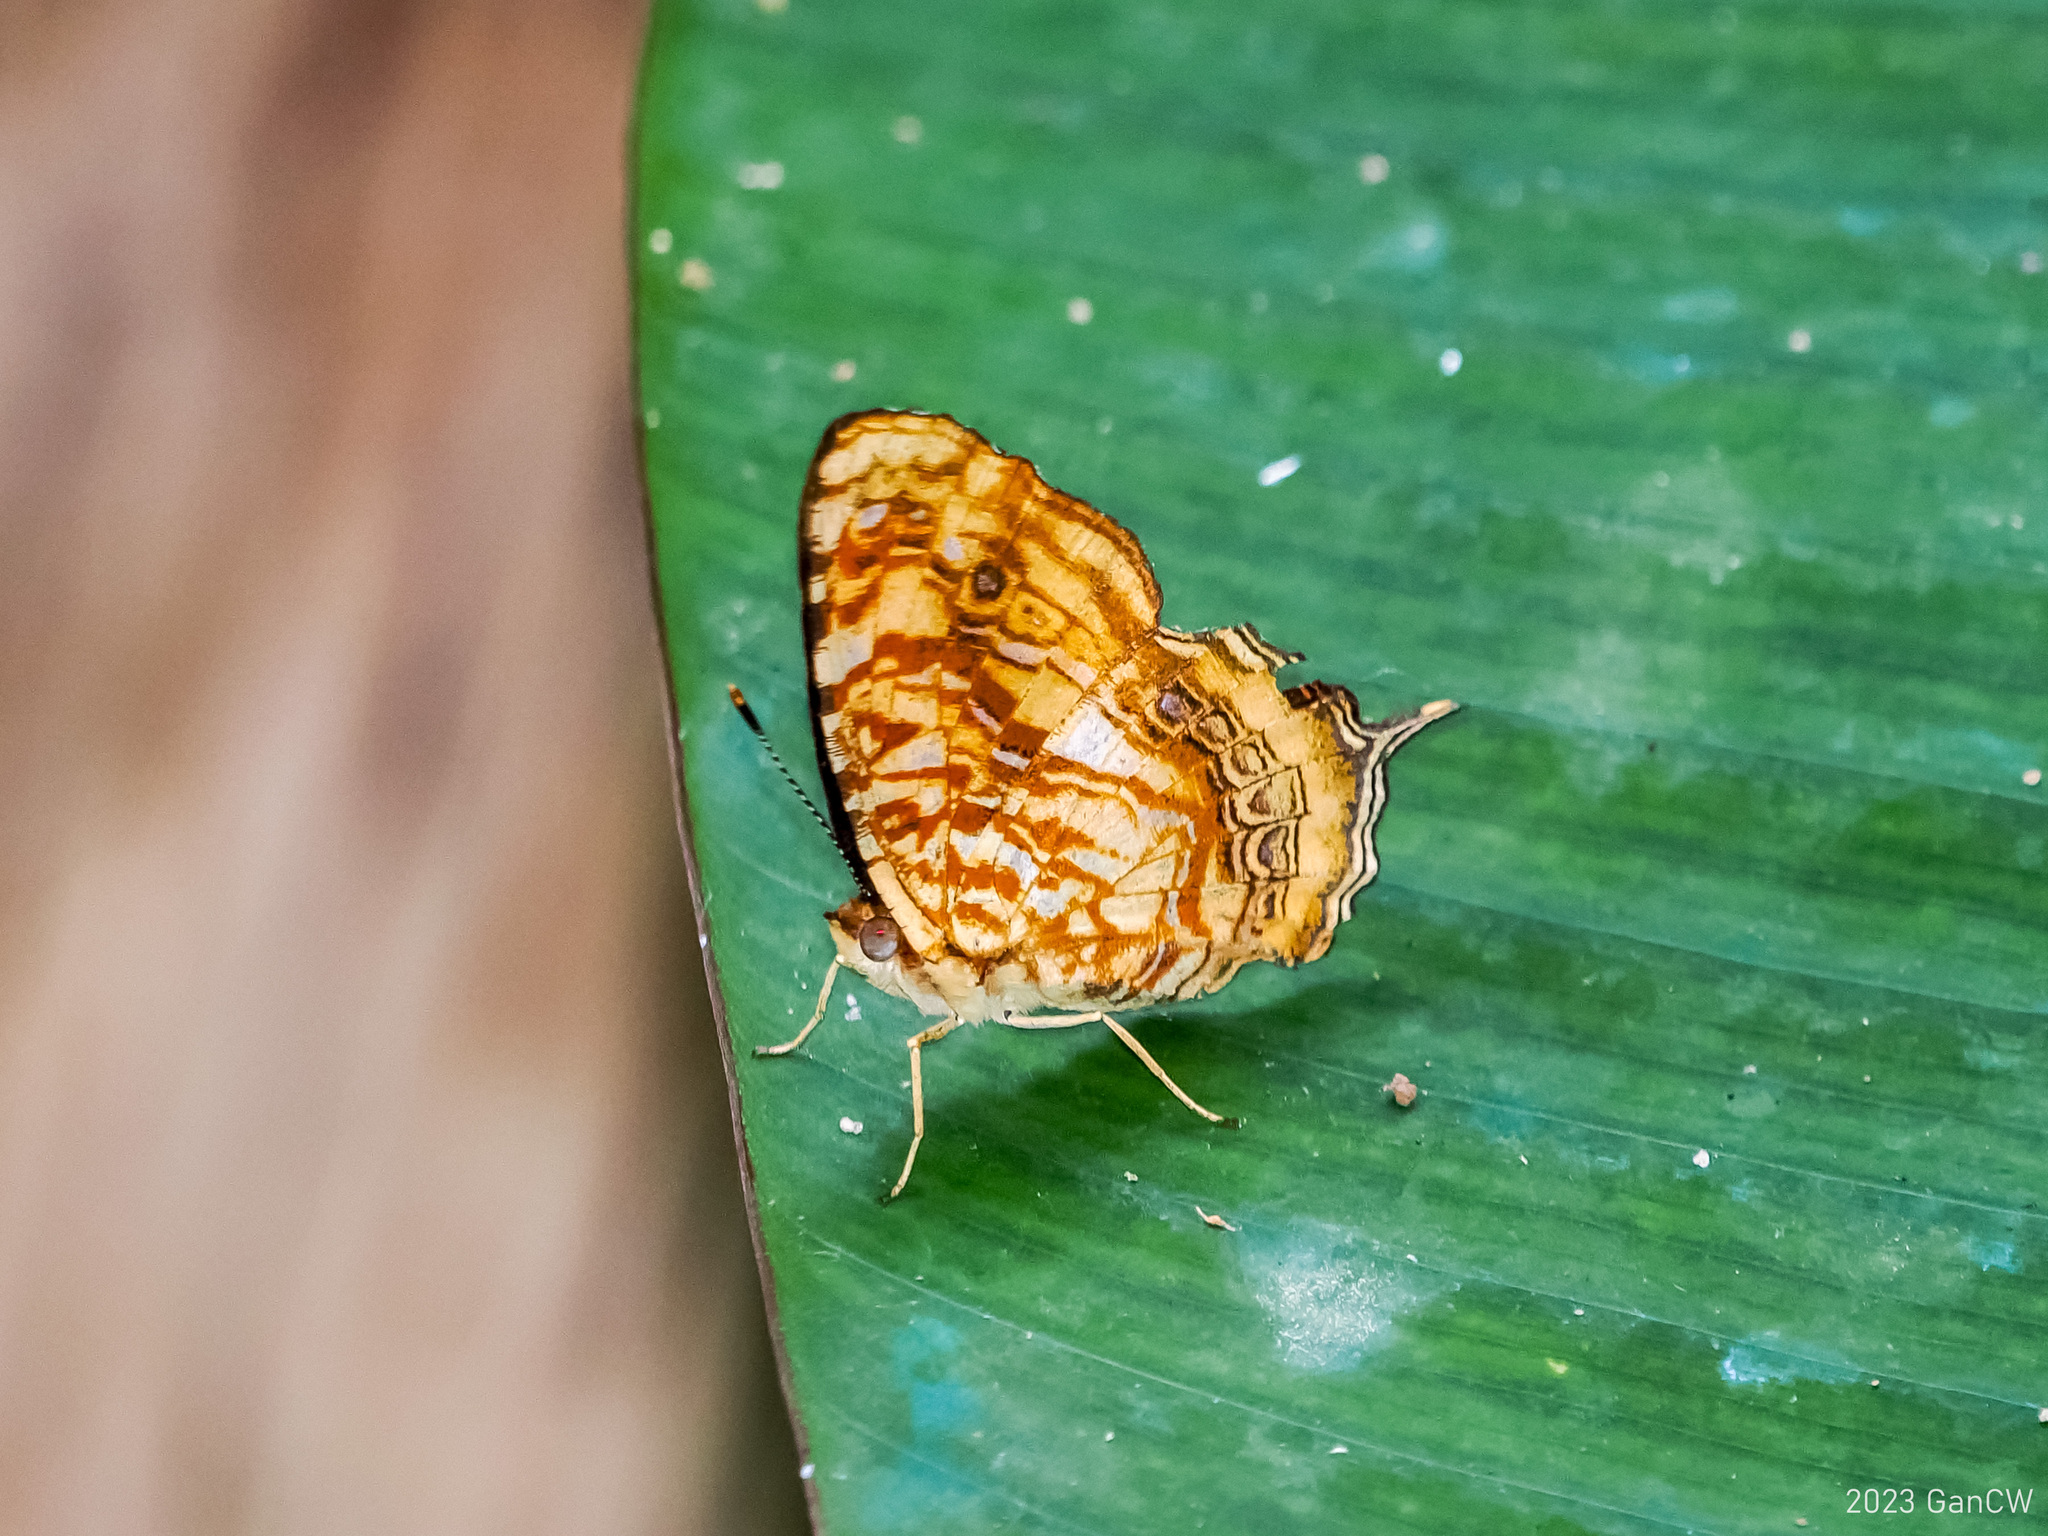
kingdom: Animalia
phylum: Arthropoda
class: Insecta
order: Lepidoptera
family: Nymphalidae
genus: Symbrenthia
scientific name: Symbrenthia intricata
